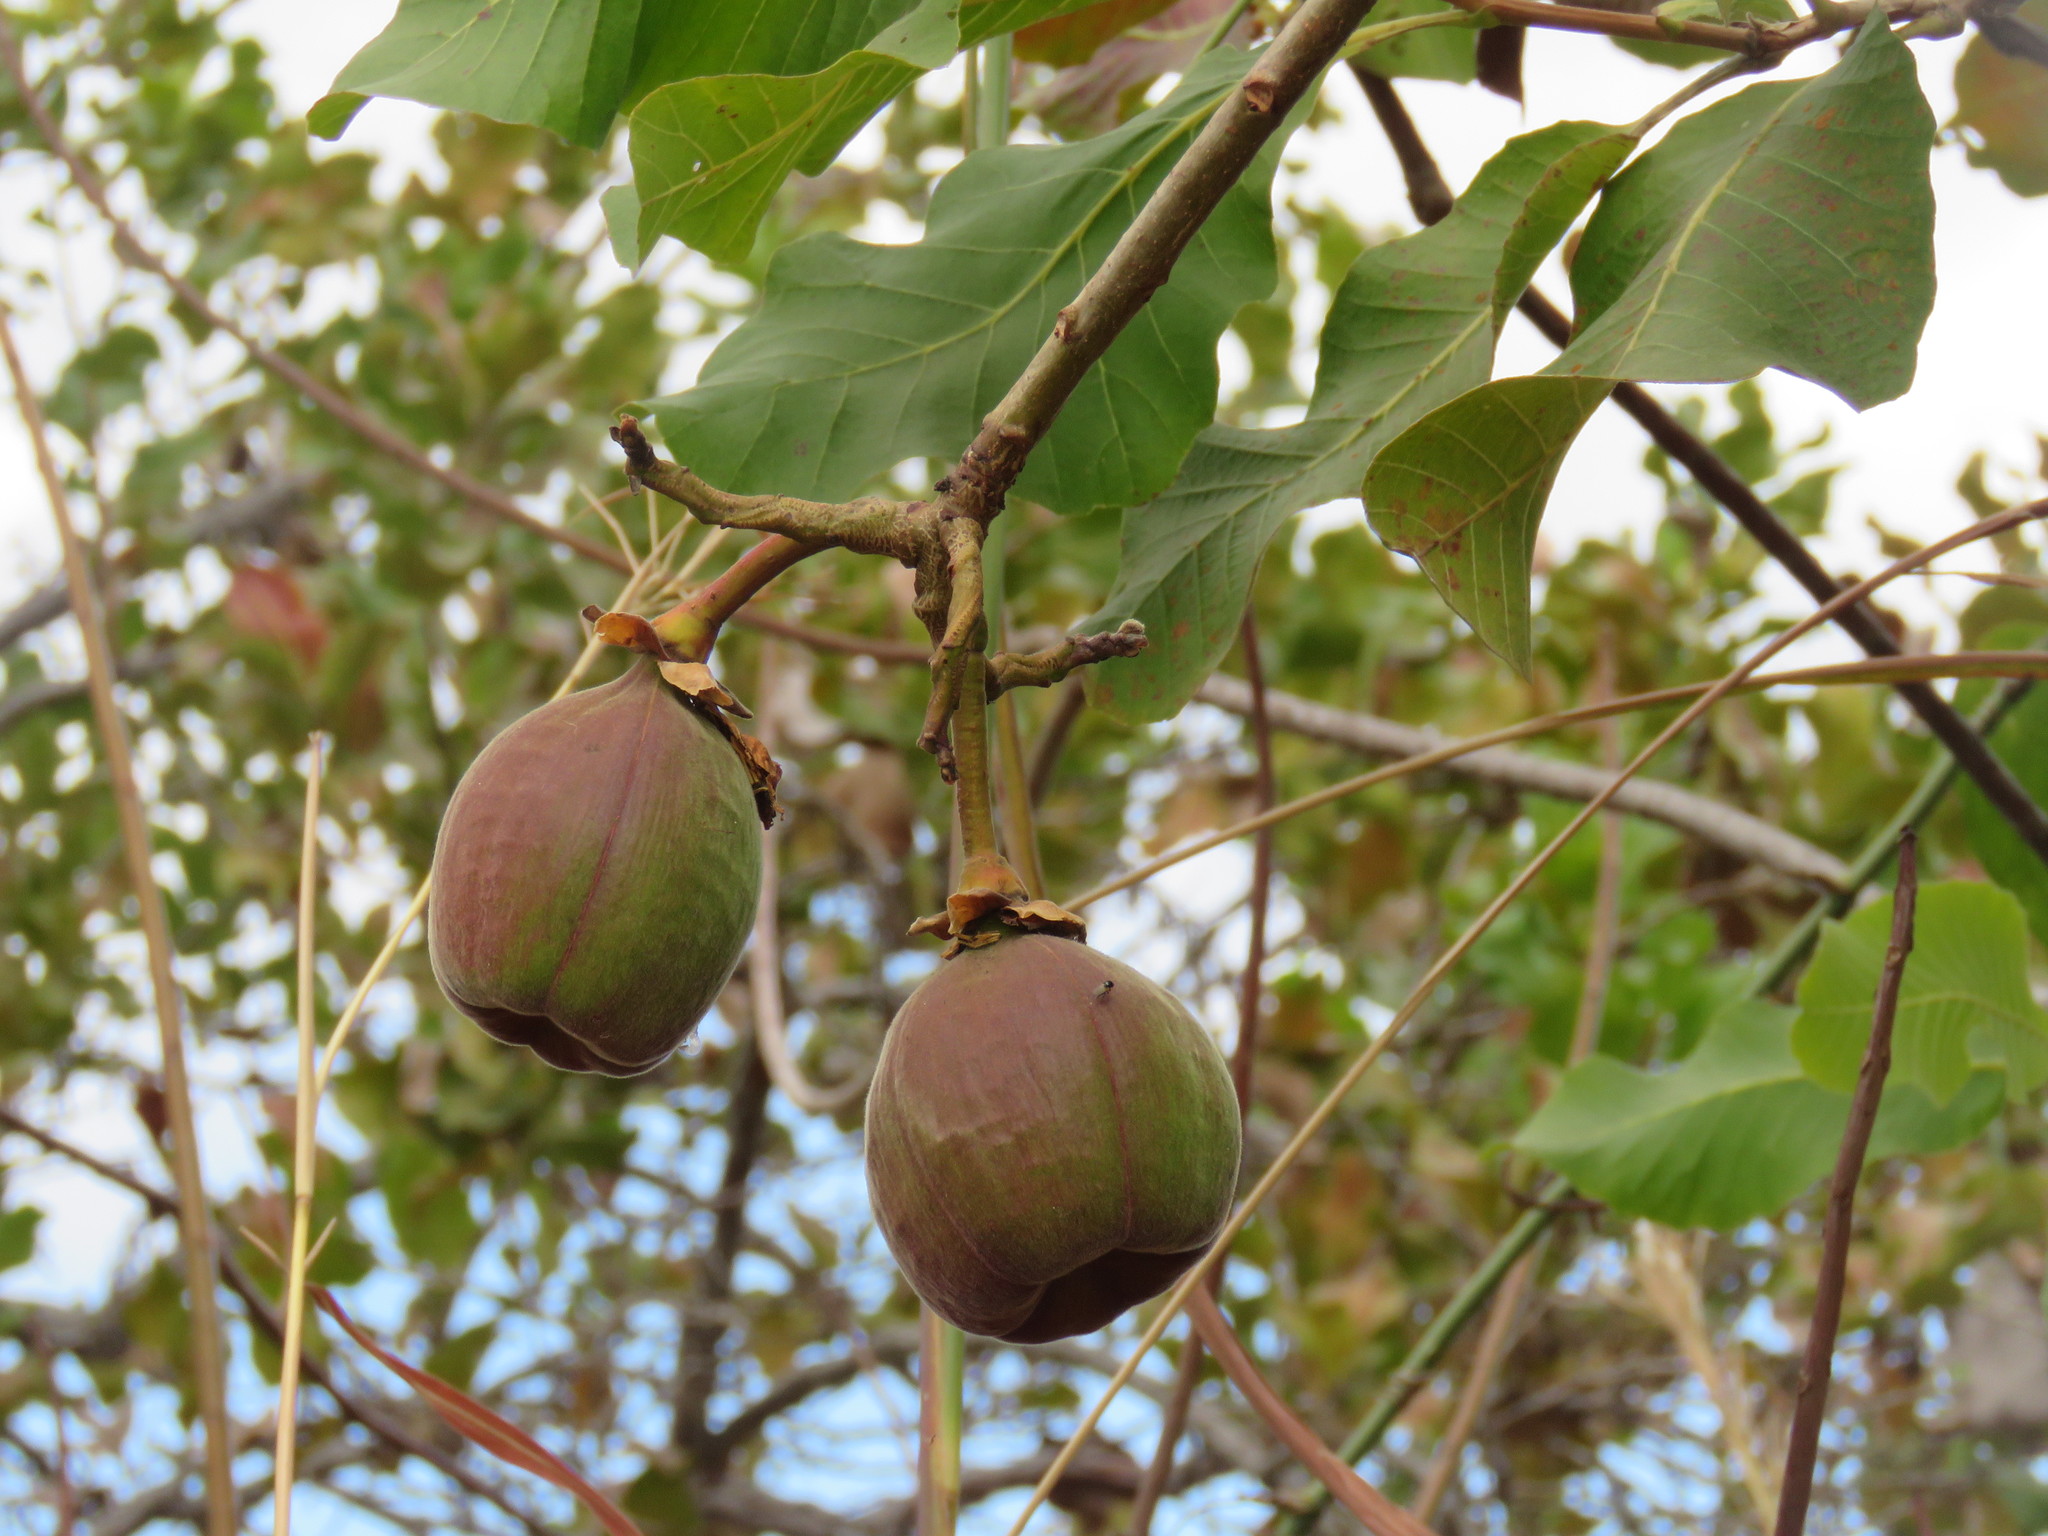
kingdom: Plantae
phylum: Tracheophyta
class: Magnoliopsida
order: Malvales
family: Cochlospermaceae
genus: Cochlospermum
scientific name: Cochlospermum vitifolium
